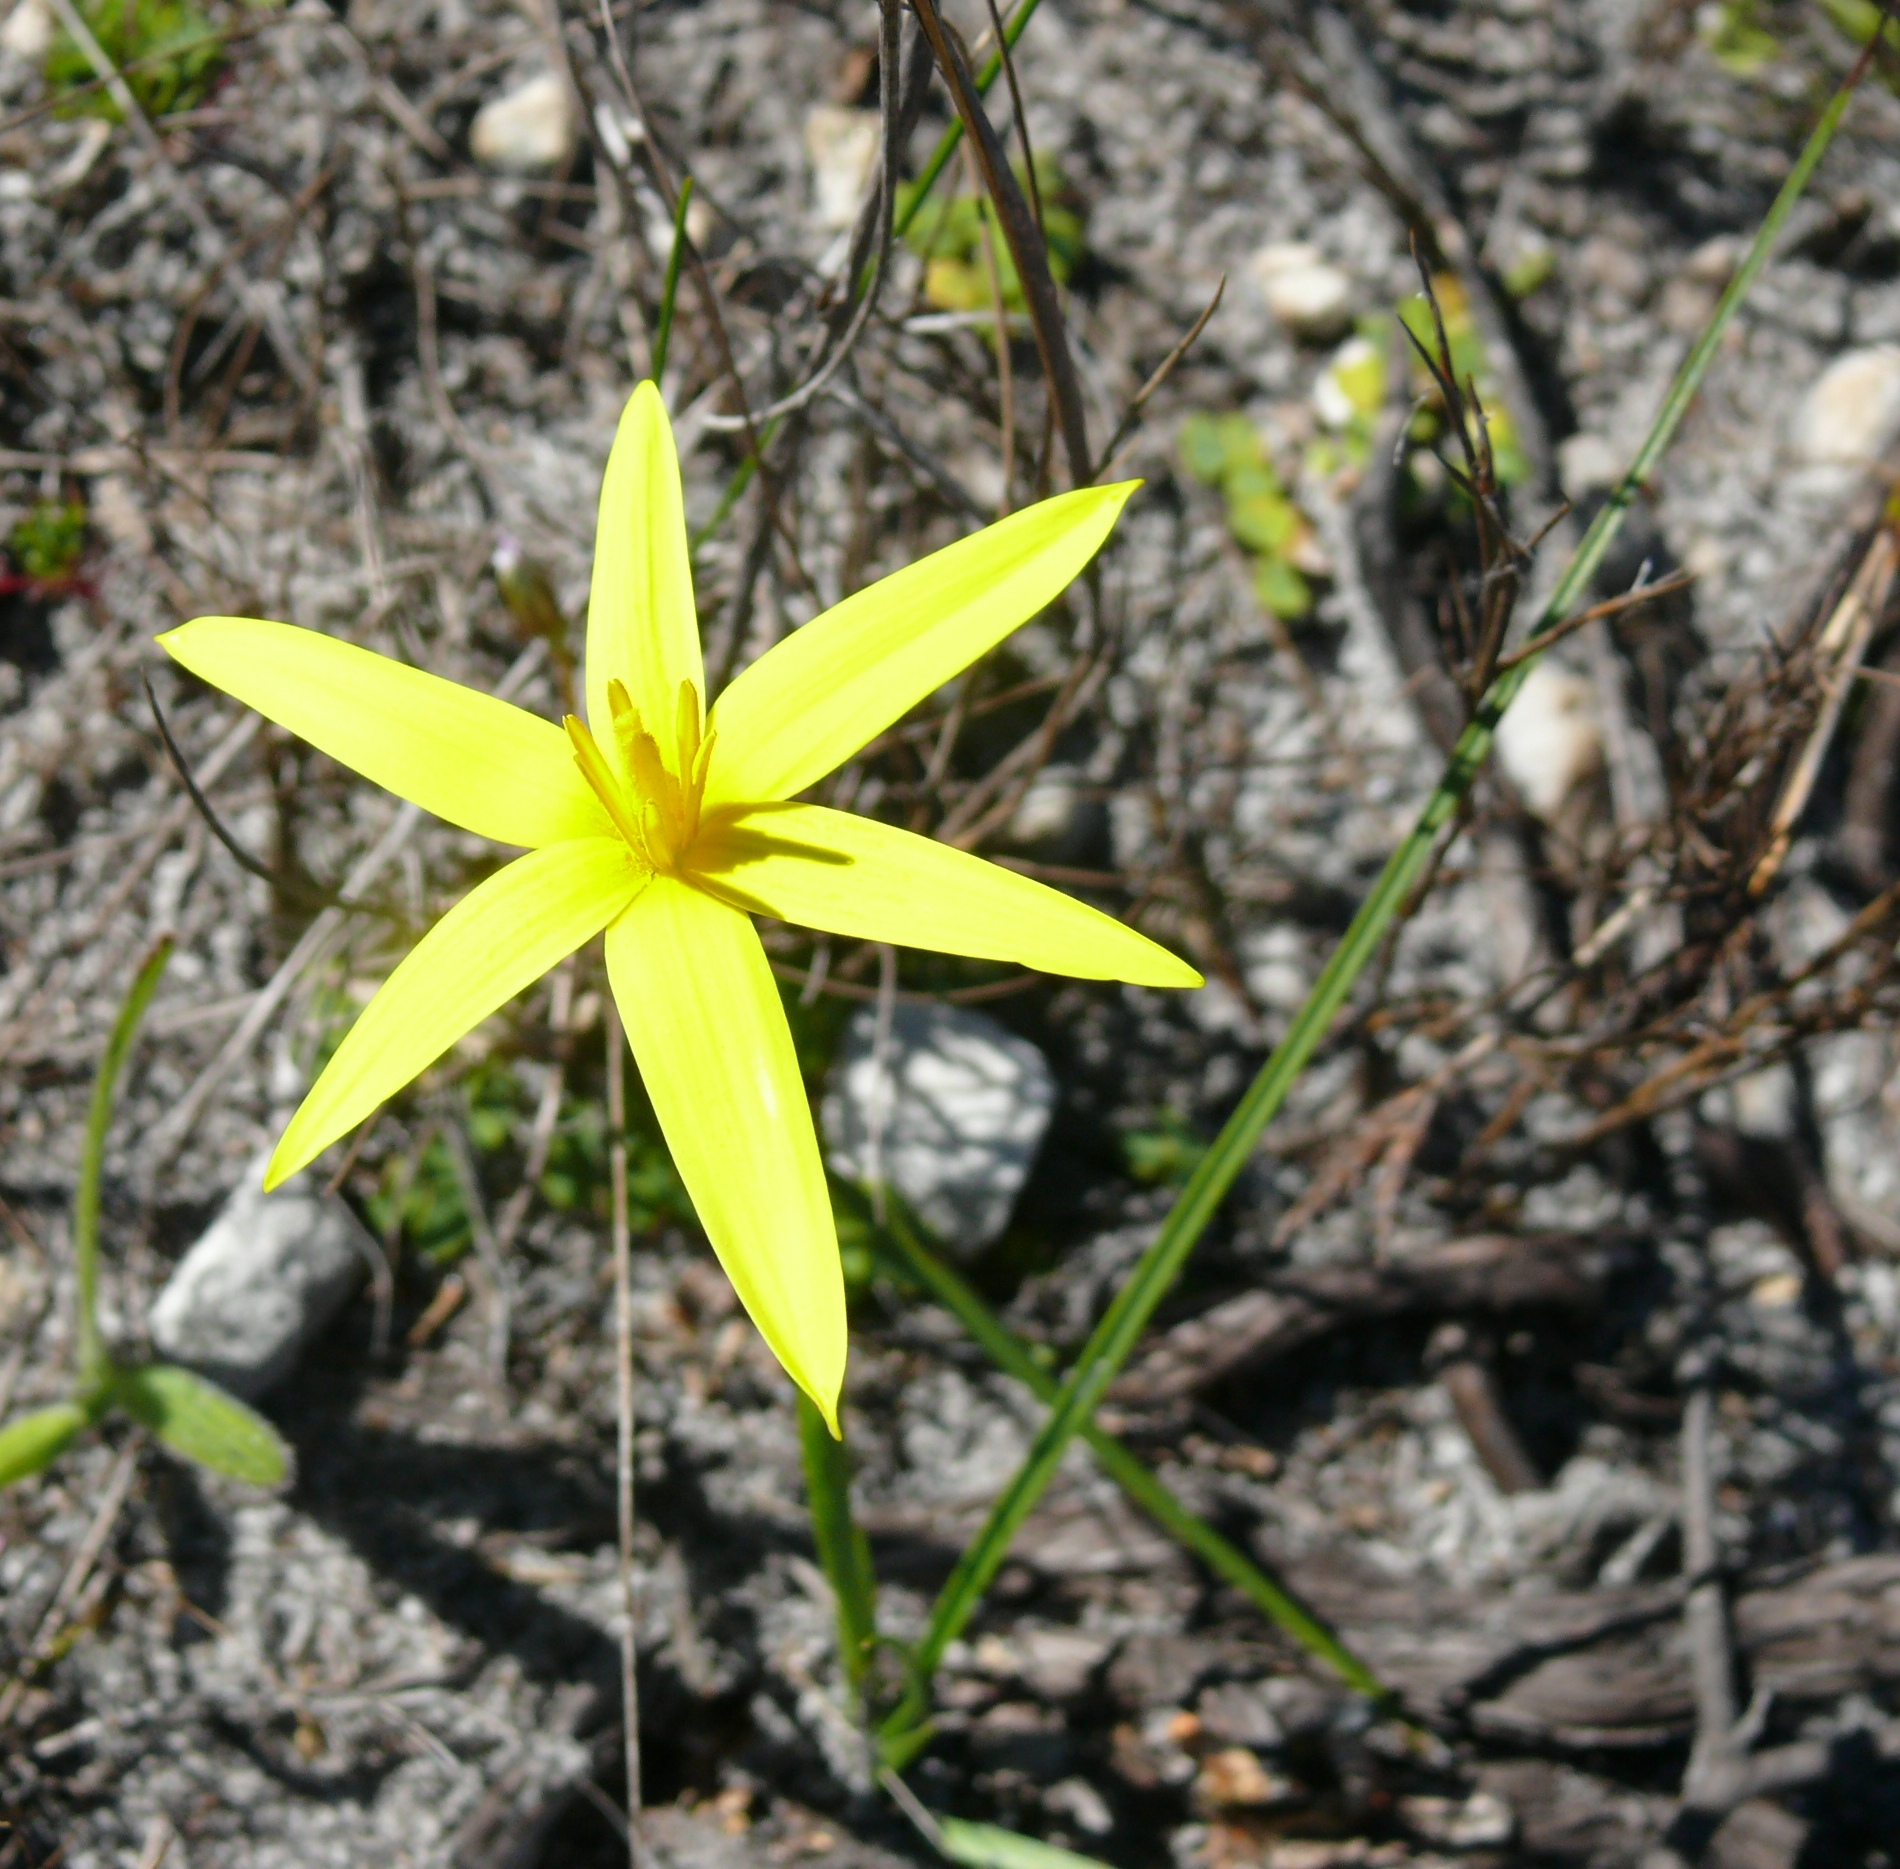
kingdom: Plantae
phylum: Tracheophyta
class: Liliopsida
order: Asparagales
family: Hypoxidaceae
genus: Pauridia
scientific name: Pauridia capensis
